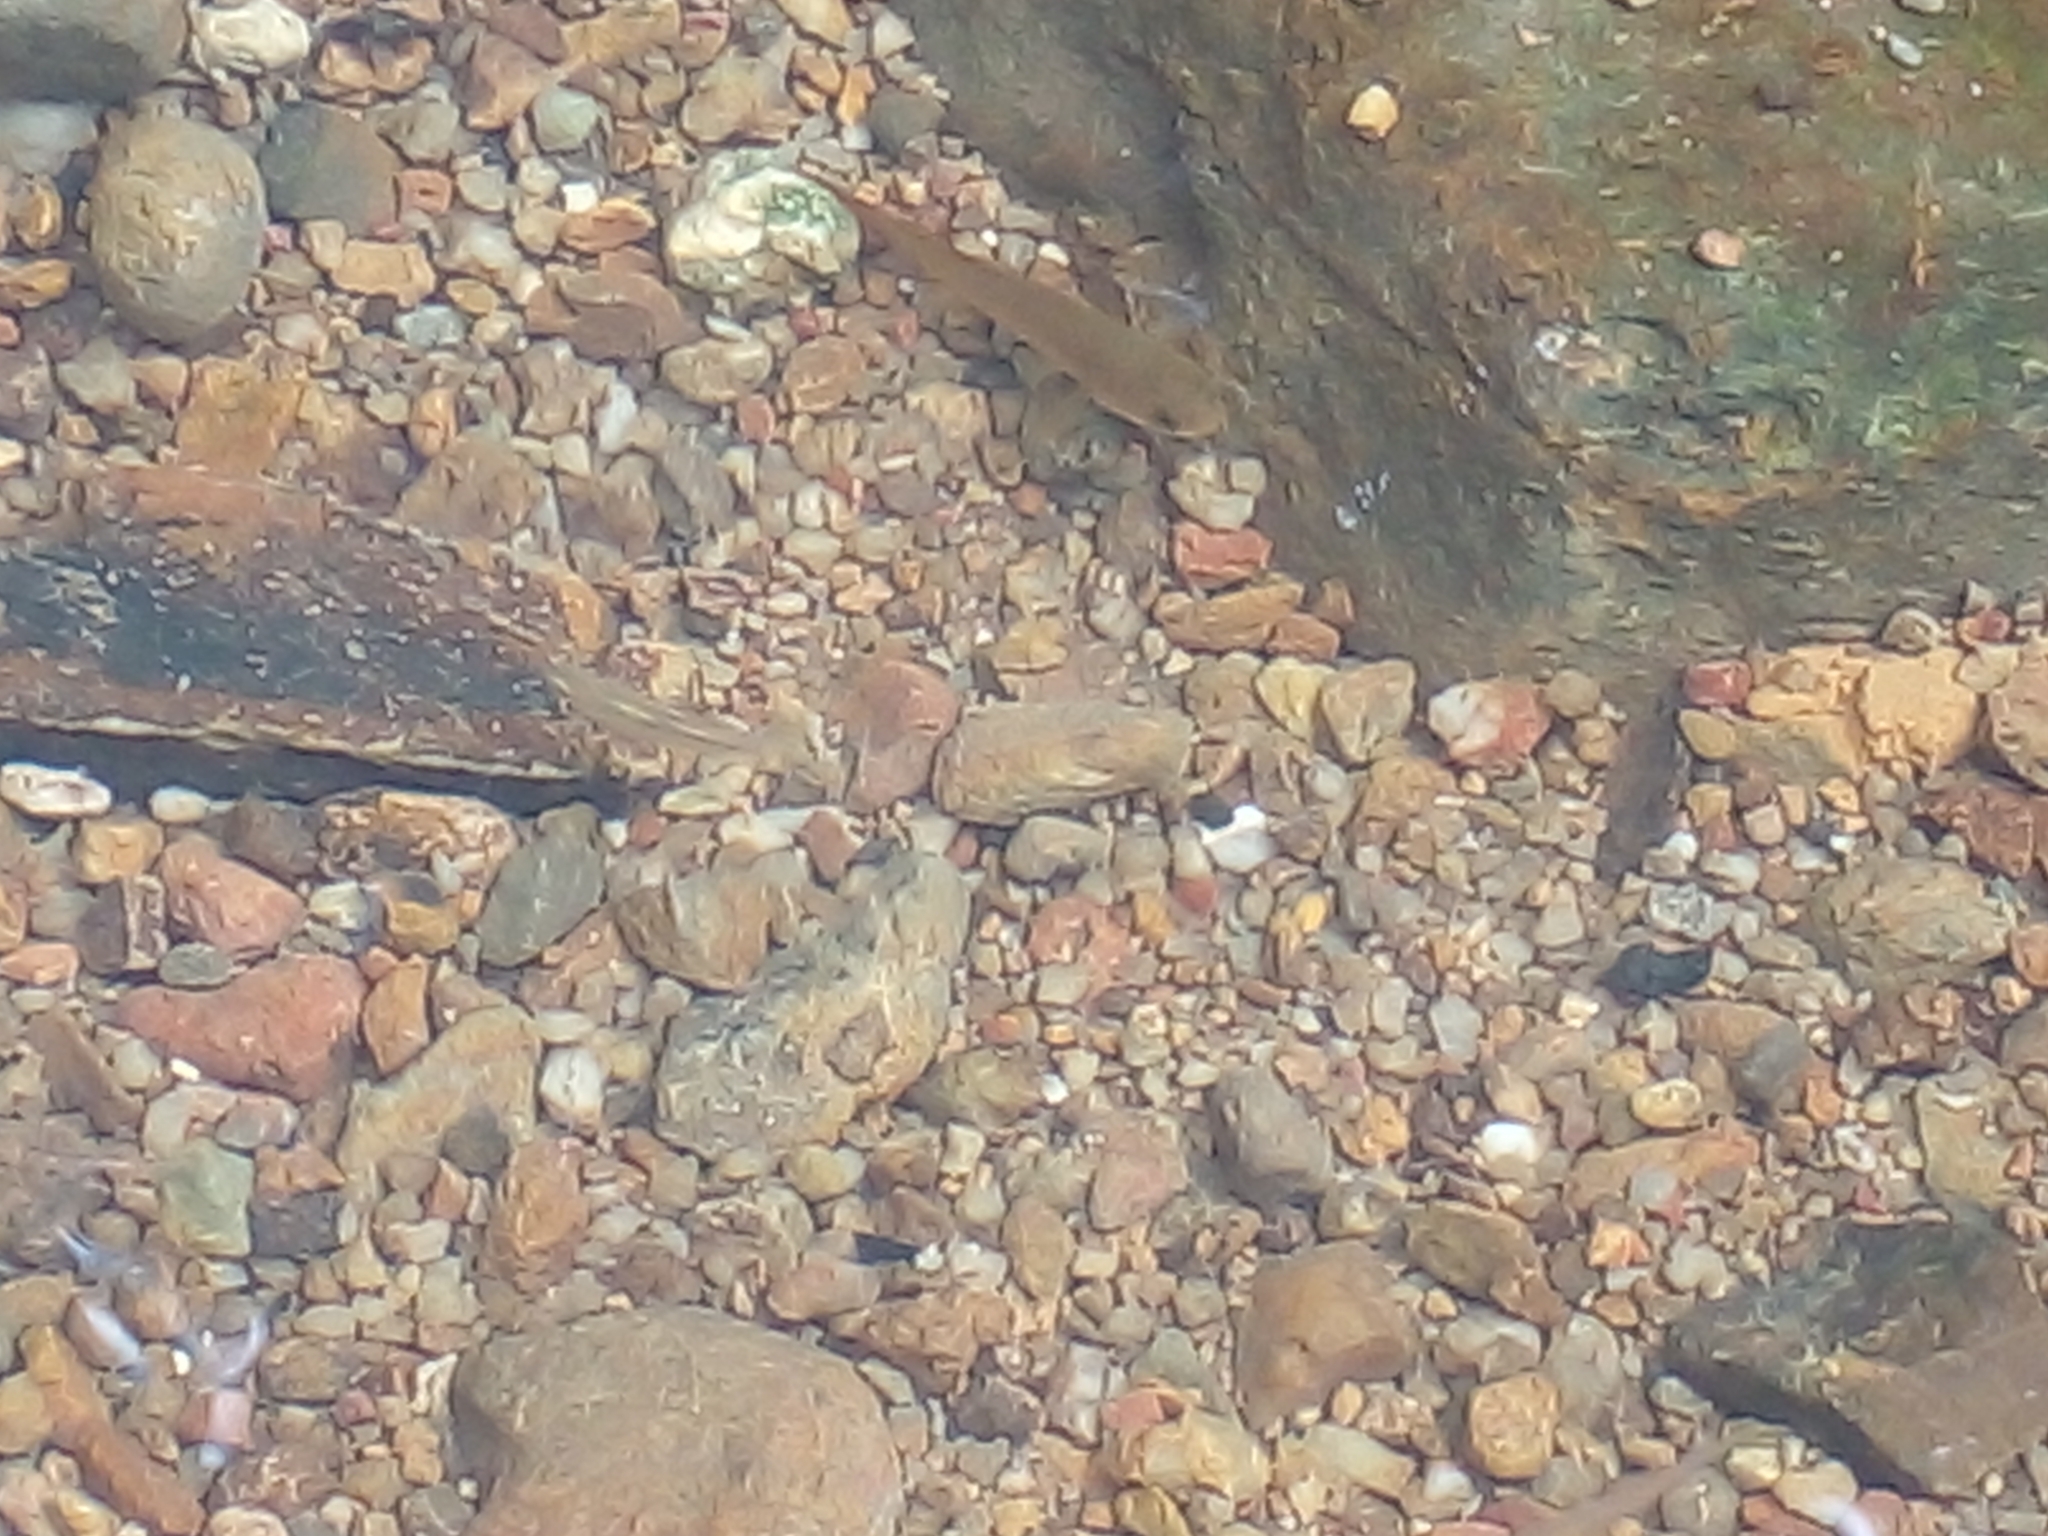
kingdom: Animalia
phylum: Chordata
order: Perciformes
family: Channidae
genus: Channa
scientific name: Channa striata
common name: Striped snakehead
